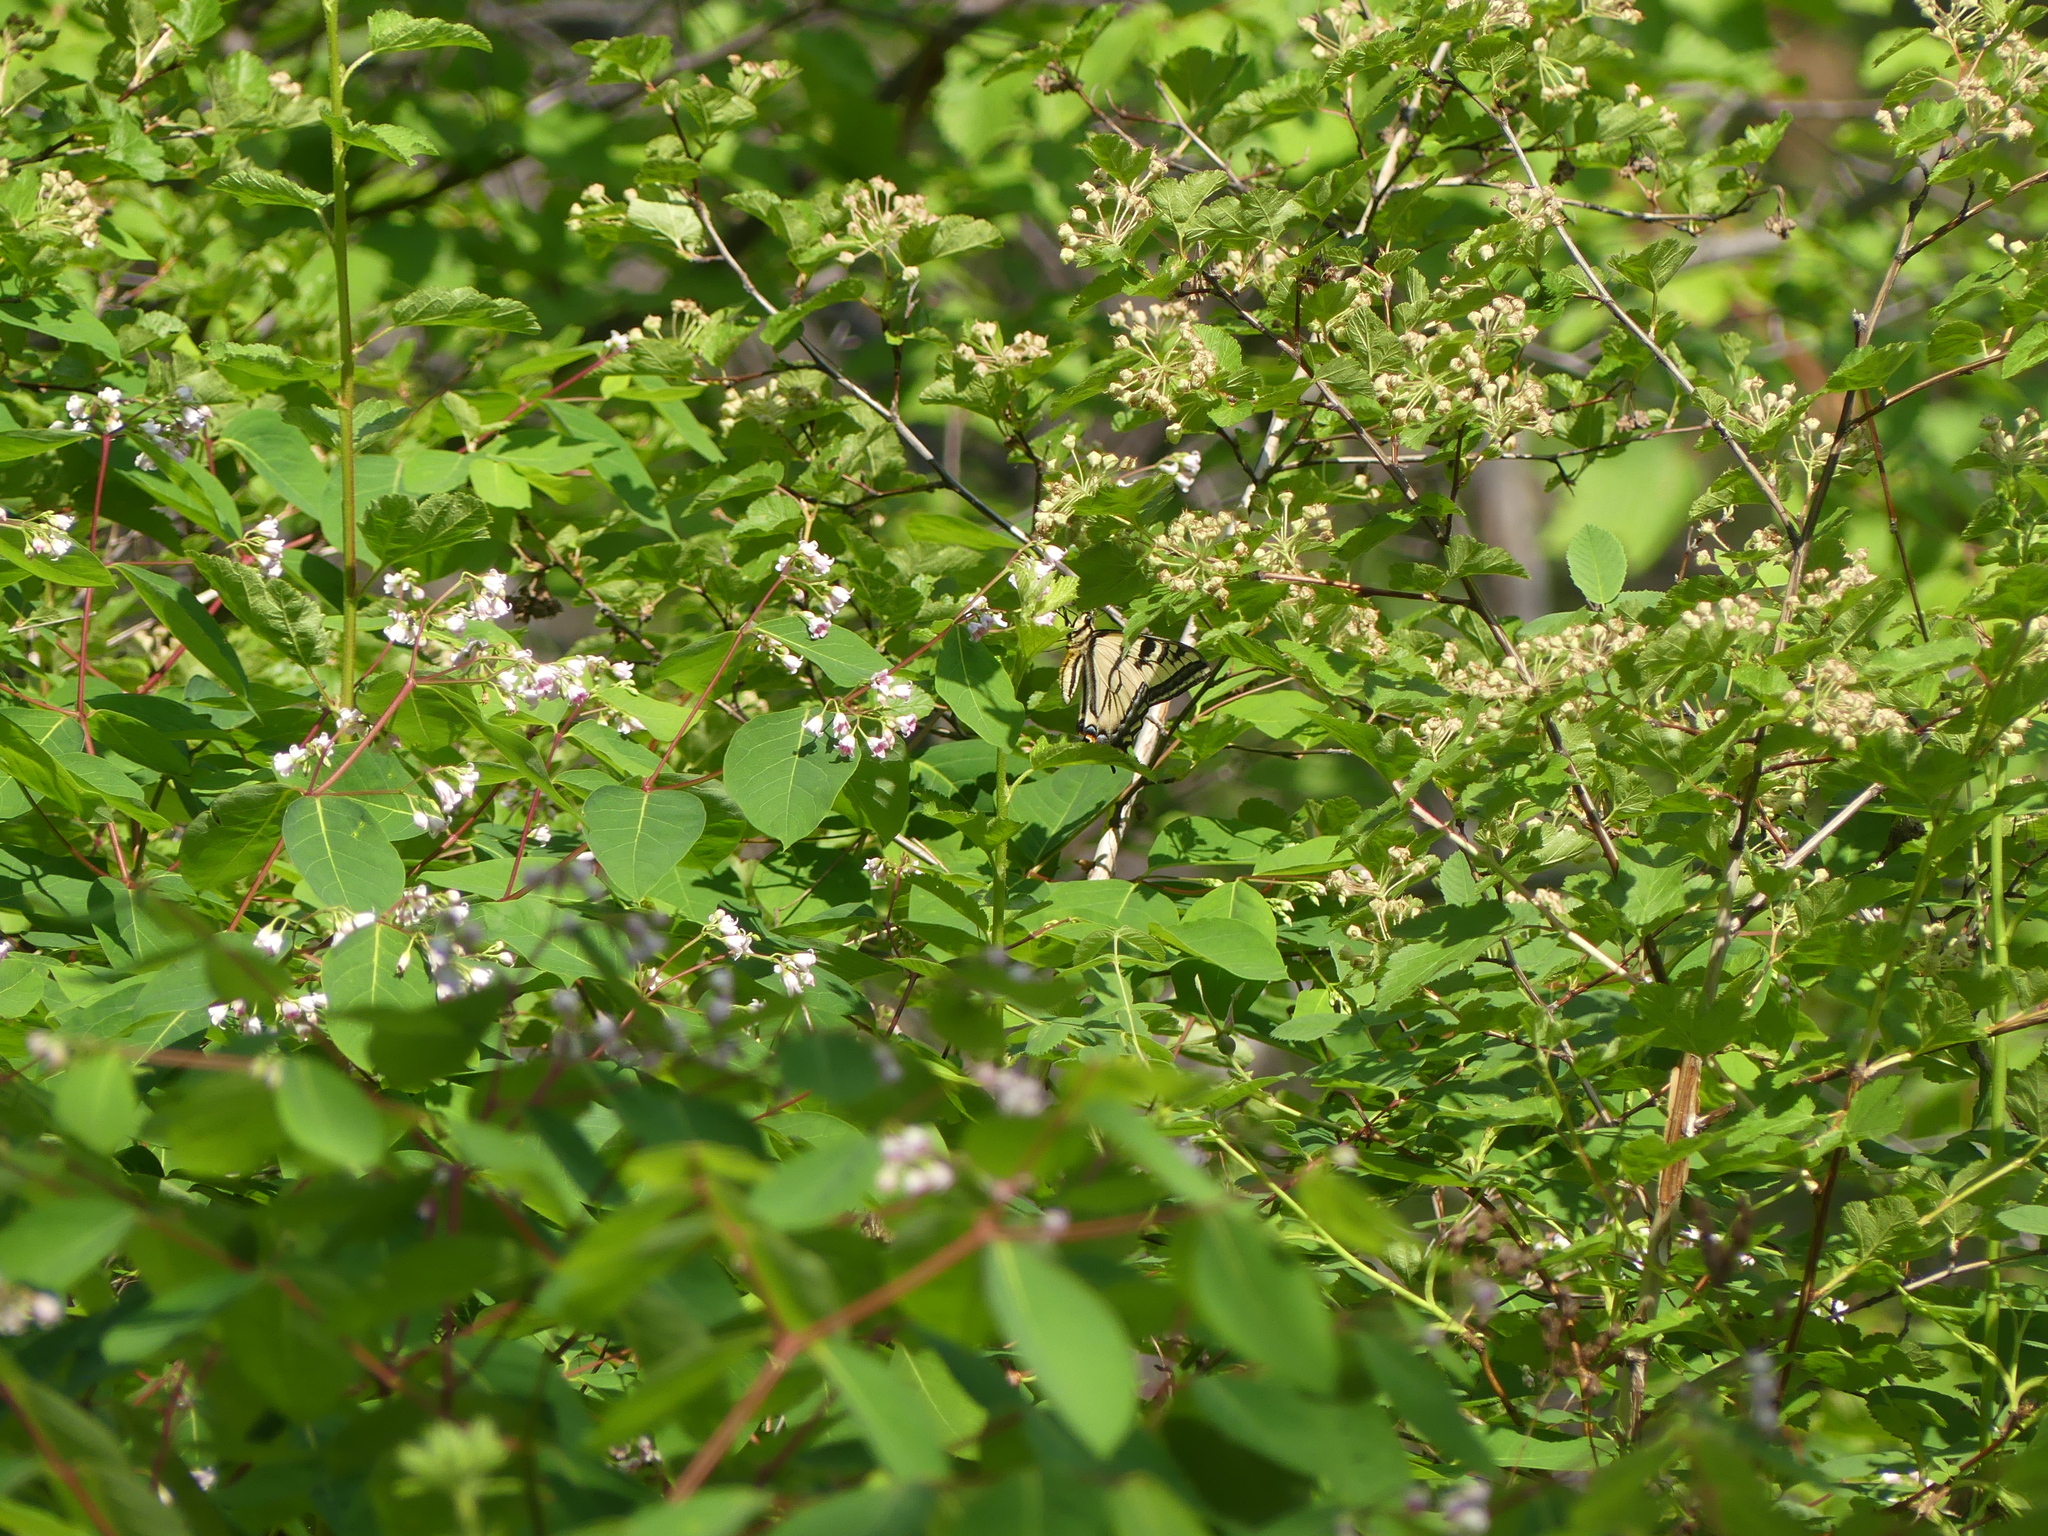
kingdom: Animalia
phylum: Arthropoda
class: Insecta
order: Lepidoptera
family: Papilionidae
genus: Papilio
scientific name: Papilio rutulus
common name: Western tiger swallowtail
